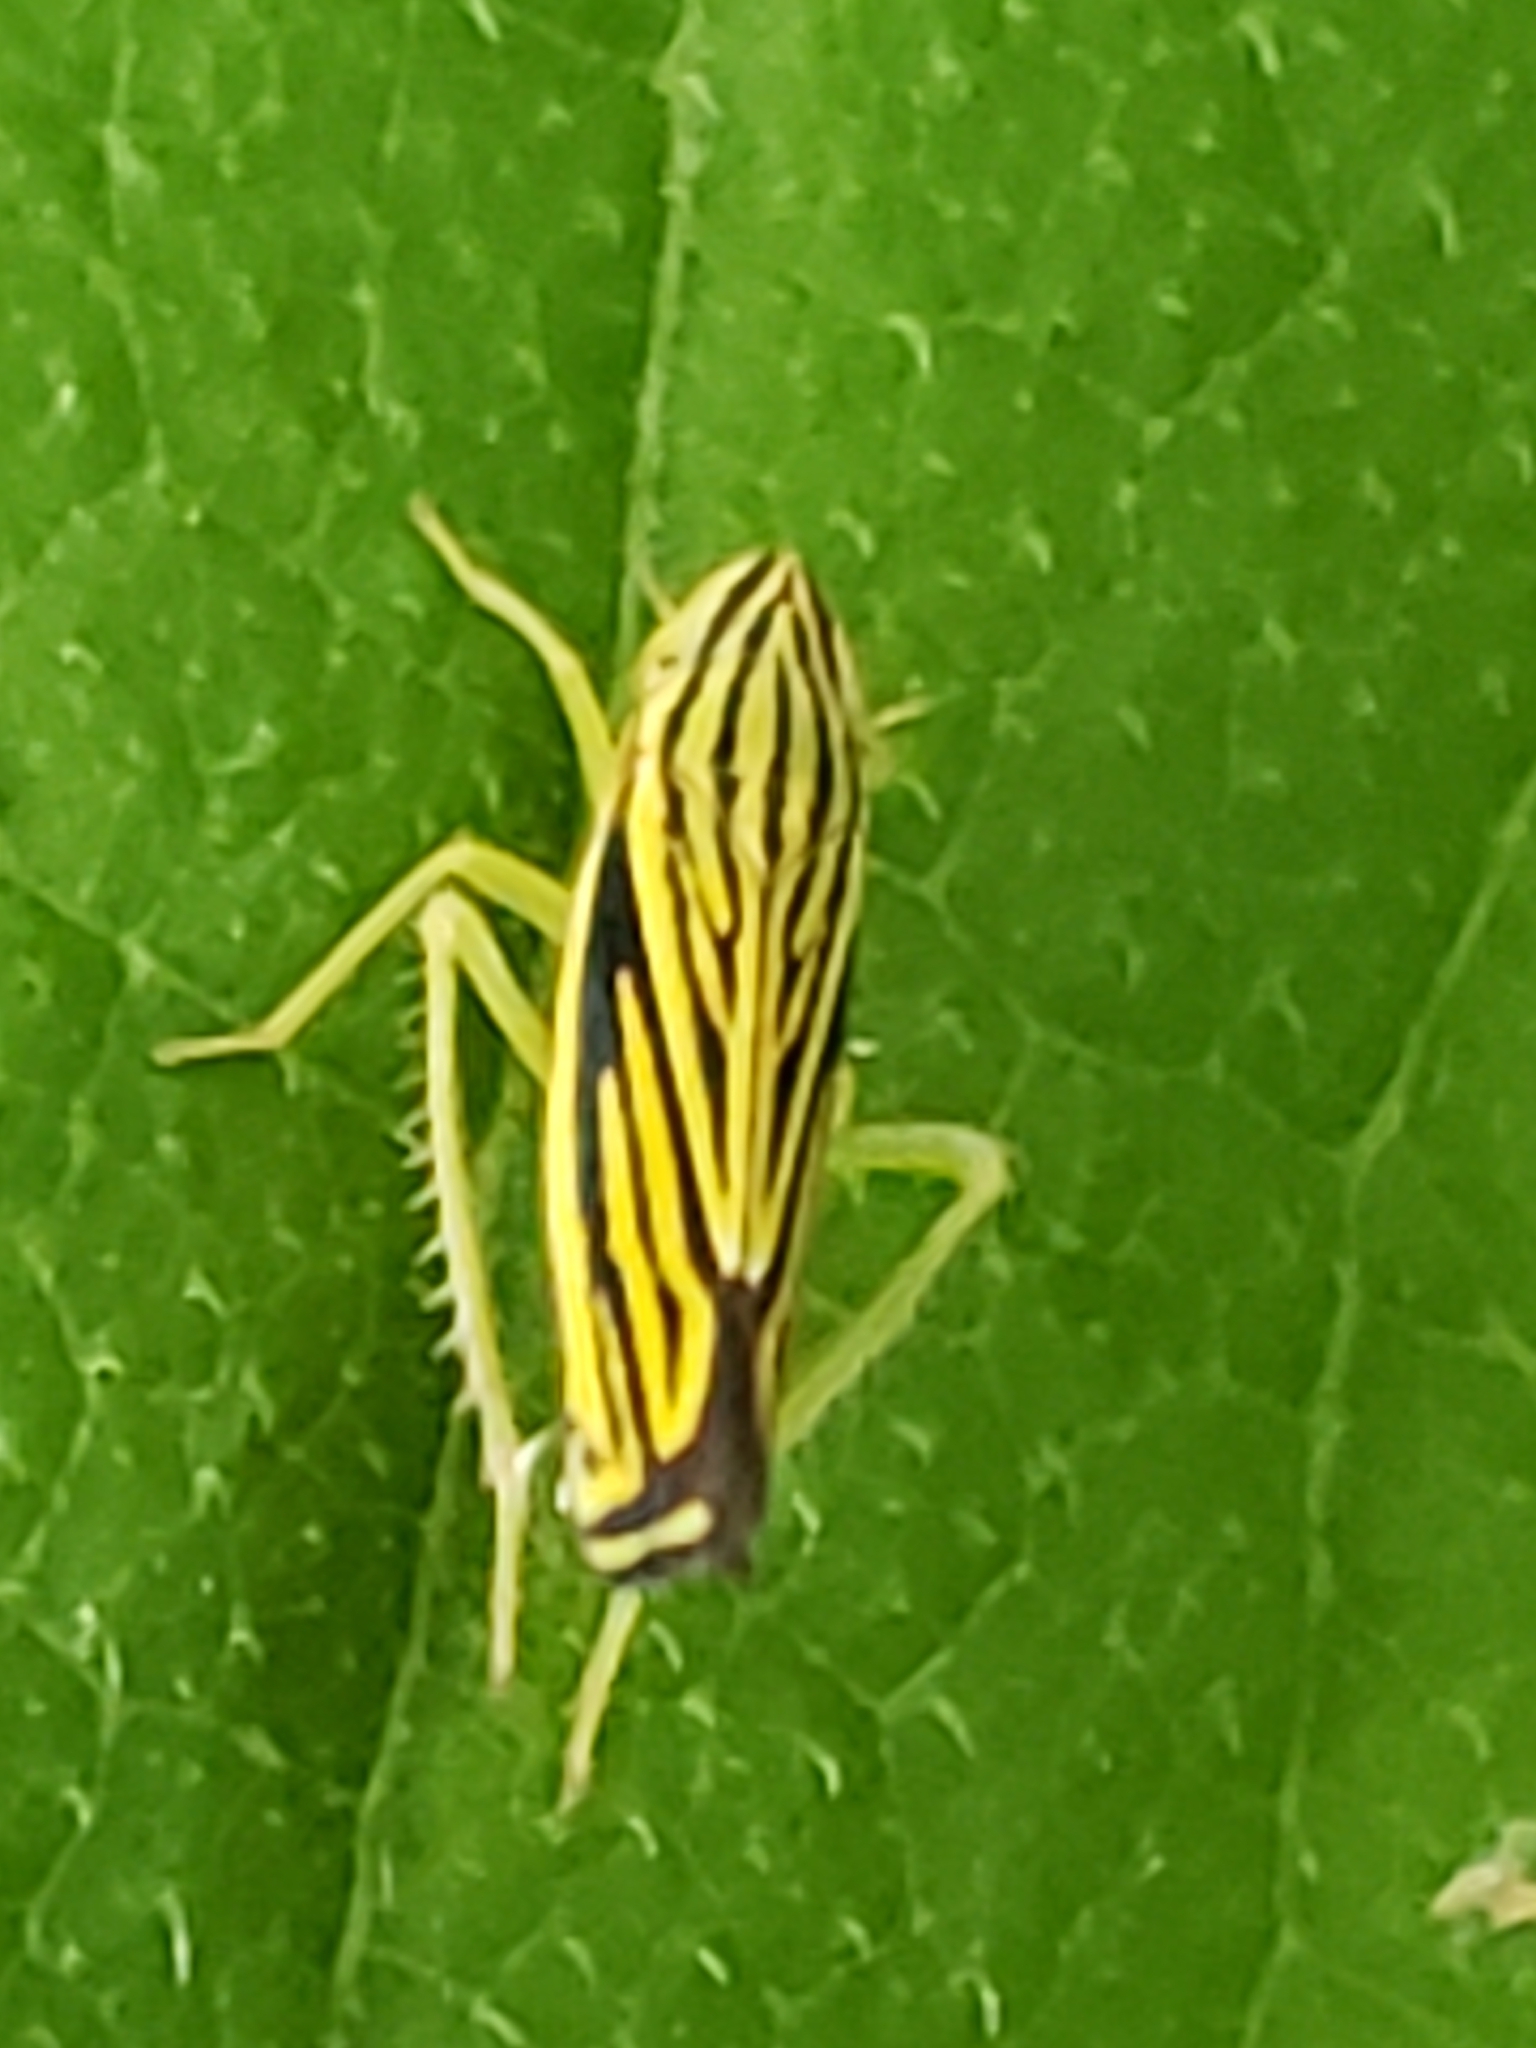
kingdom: Animalia
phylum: Arthropoda
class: Insecta
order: Hemiptera
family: Cicadellidae
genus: Sibovia
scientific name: Sibovia occatoria
